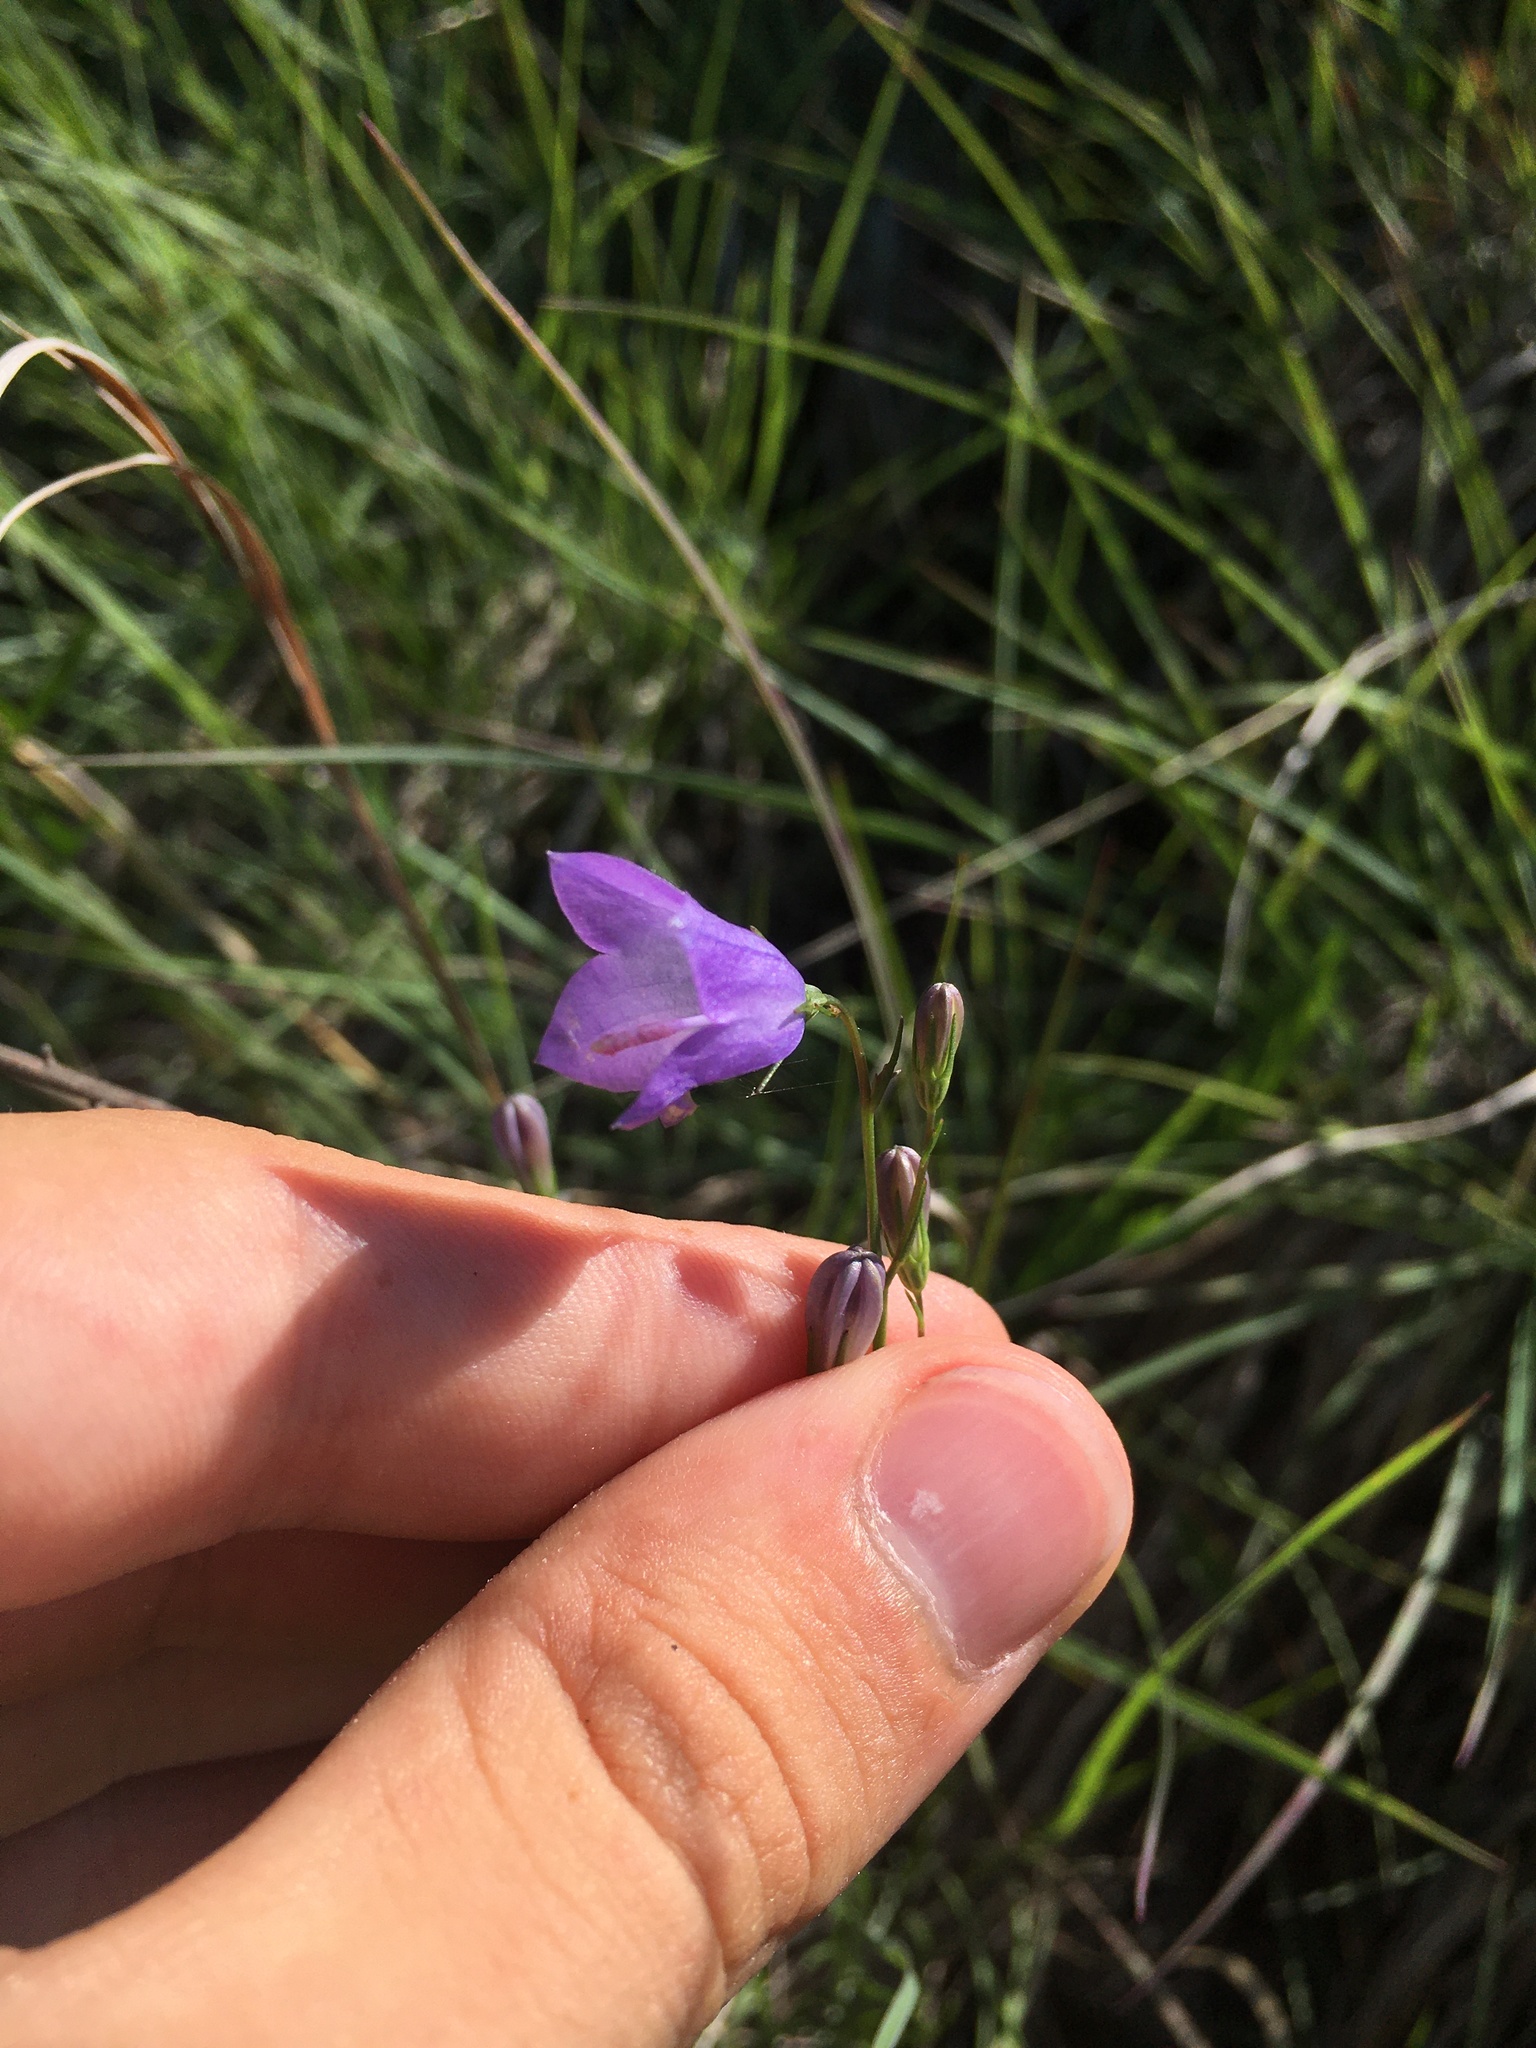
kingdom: Plantae
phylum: Tracheophyta
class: Magnoliopsida
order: Asterales
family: Campanulaceae
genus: Campanula
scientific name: Campanula intercedens
